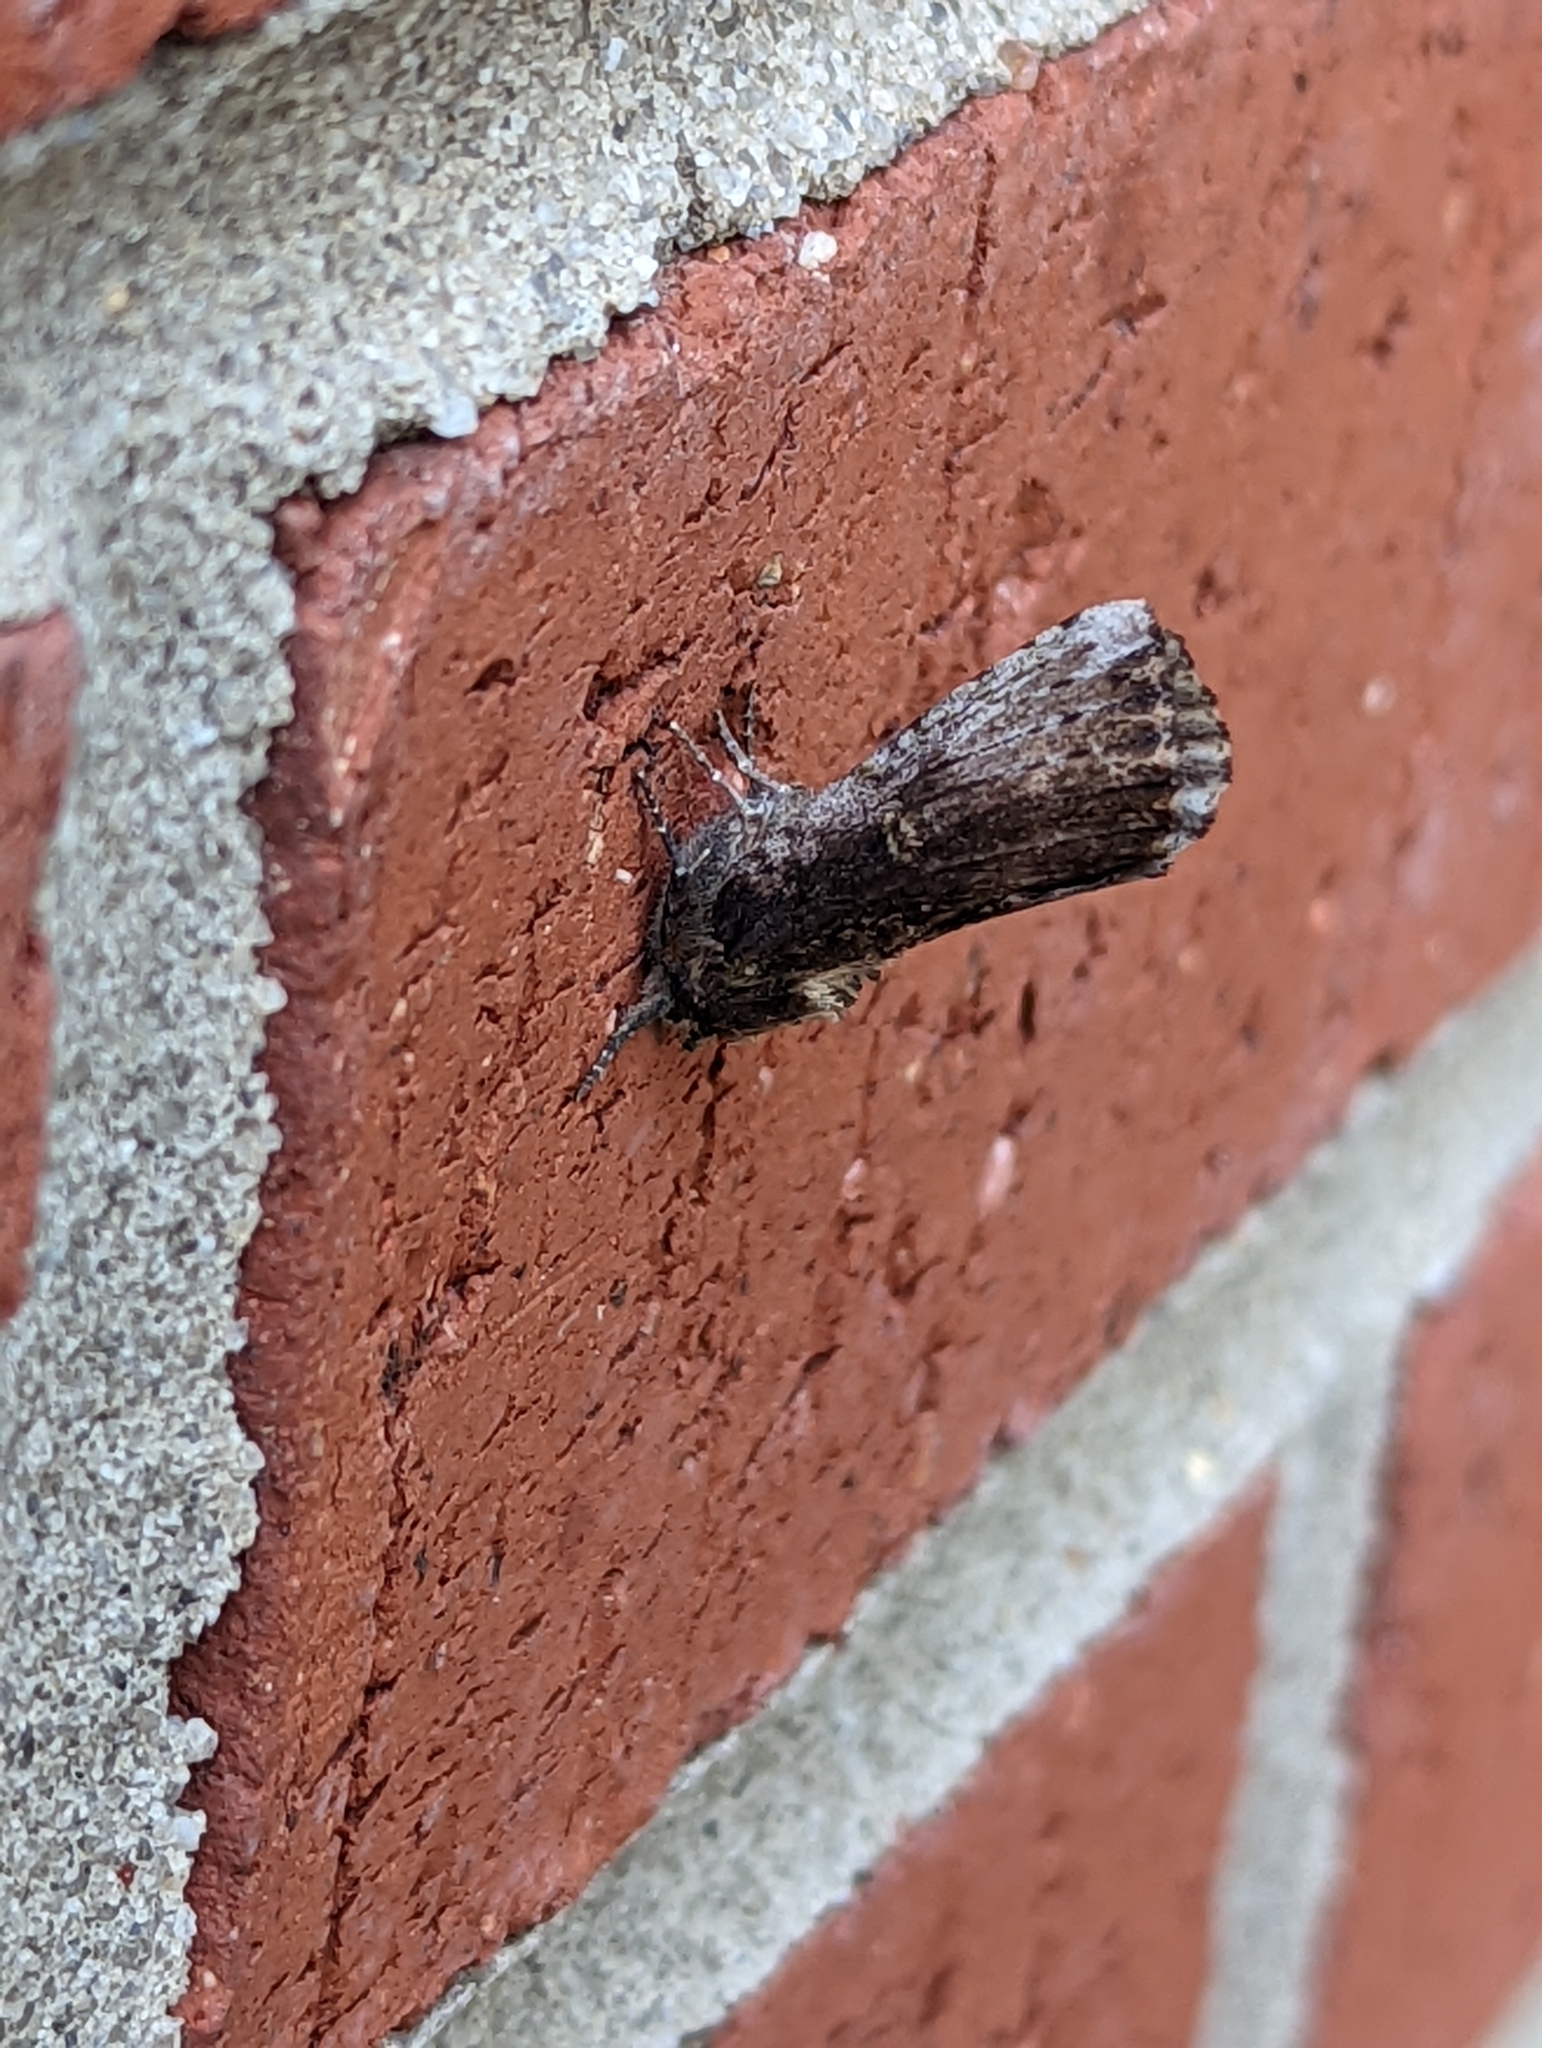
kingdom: Animalia
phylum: Arthropoda
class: Insecta
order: Lepidoptera
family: Notodontidae
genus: Schizura
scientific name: Schizura ipomaeae
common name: Morning-glory prominent
